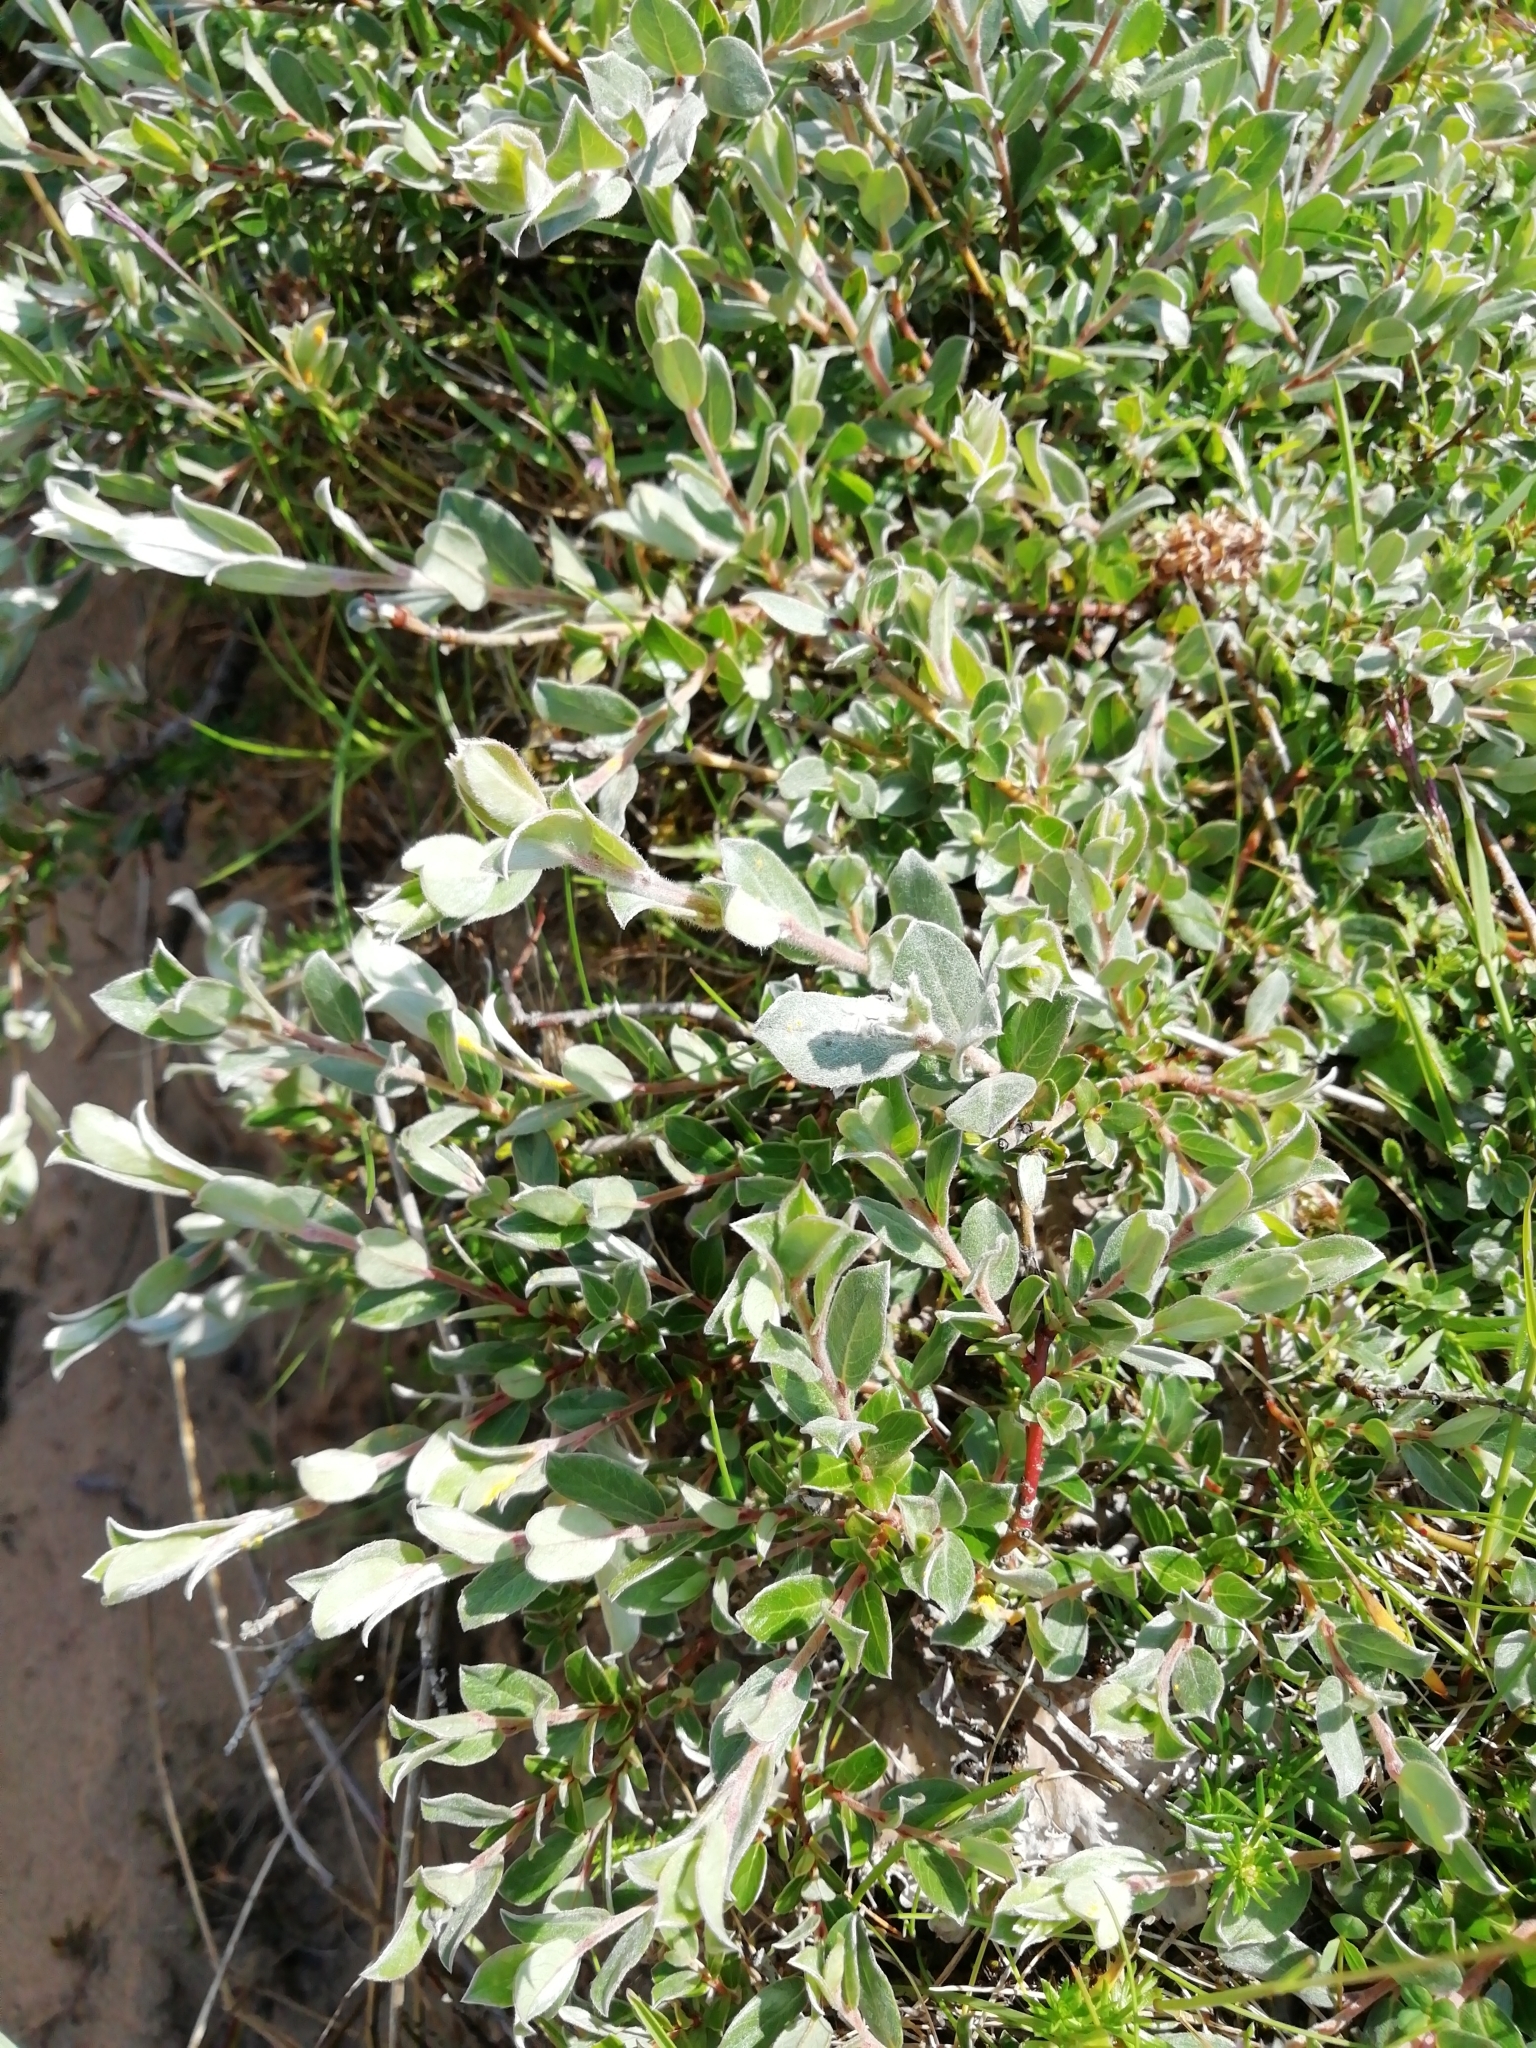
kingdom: Plantae
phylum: Tracheophyta
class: Magnoliopsida
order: Malpighiales
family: Salicaceae
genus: Salix
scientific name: Salix repens
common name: Creeping willow
